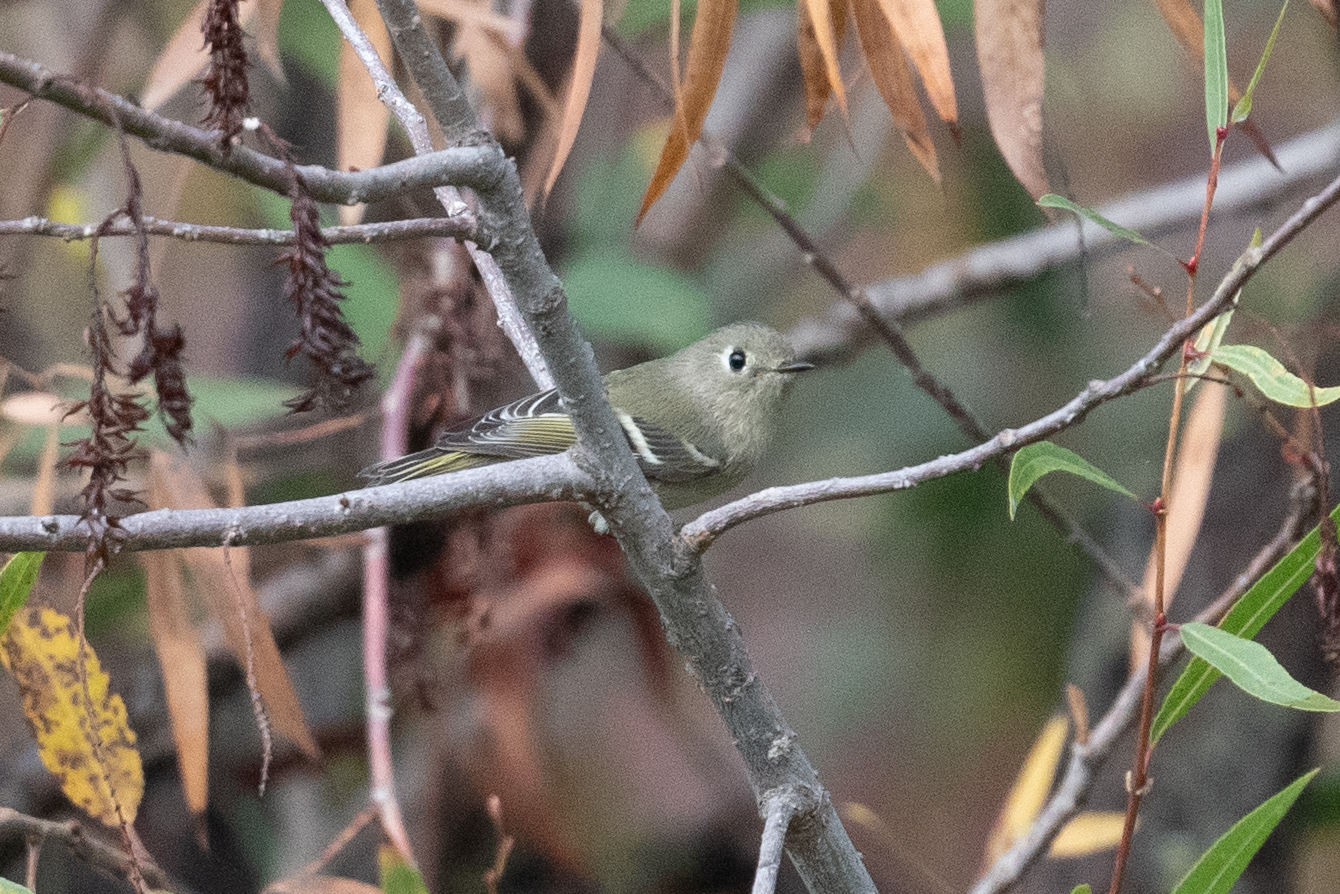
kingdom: Animalia
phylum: Chordata
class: Aves
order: Passeriformes
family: Regulidae
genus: Regulus
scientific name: Regulus calendula
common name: Ruby-crowned kinglet
